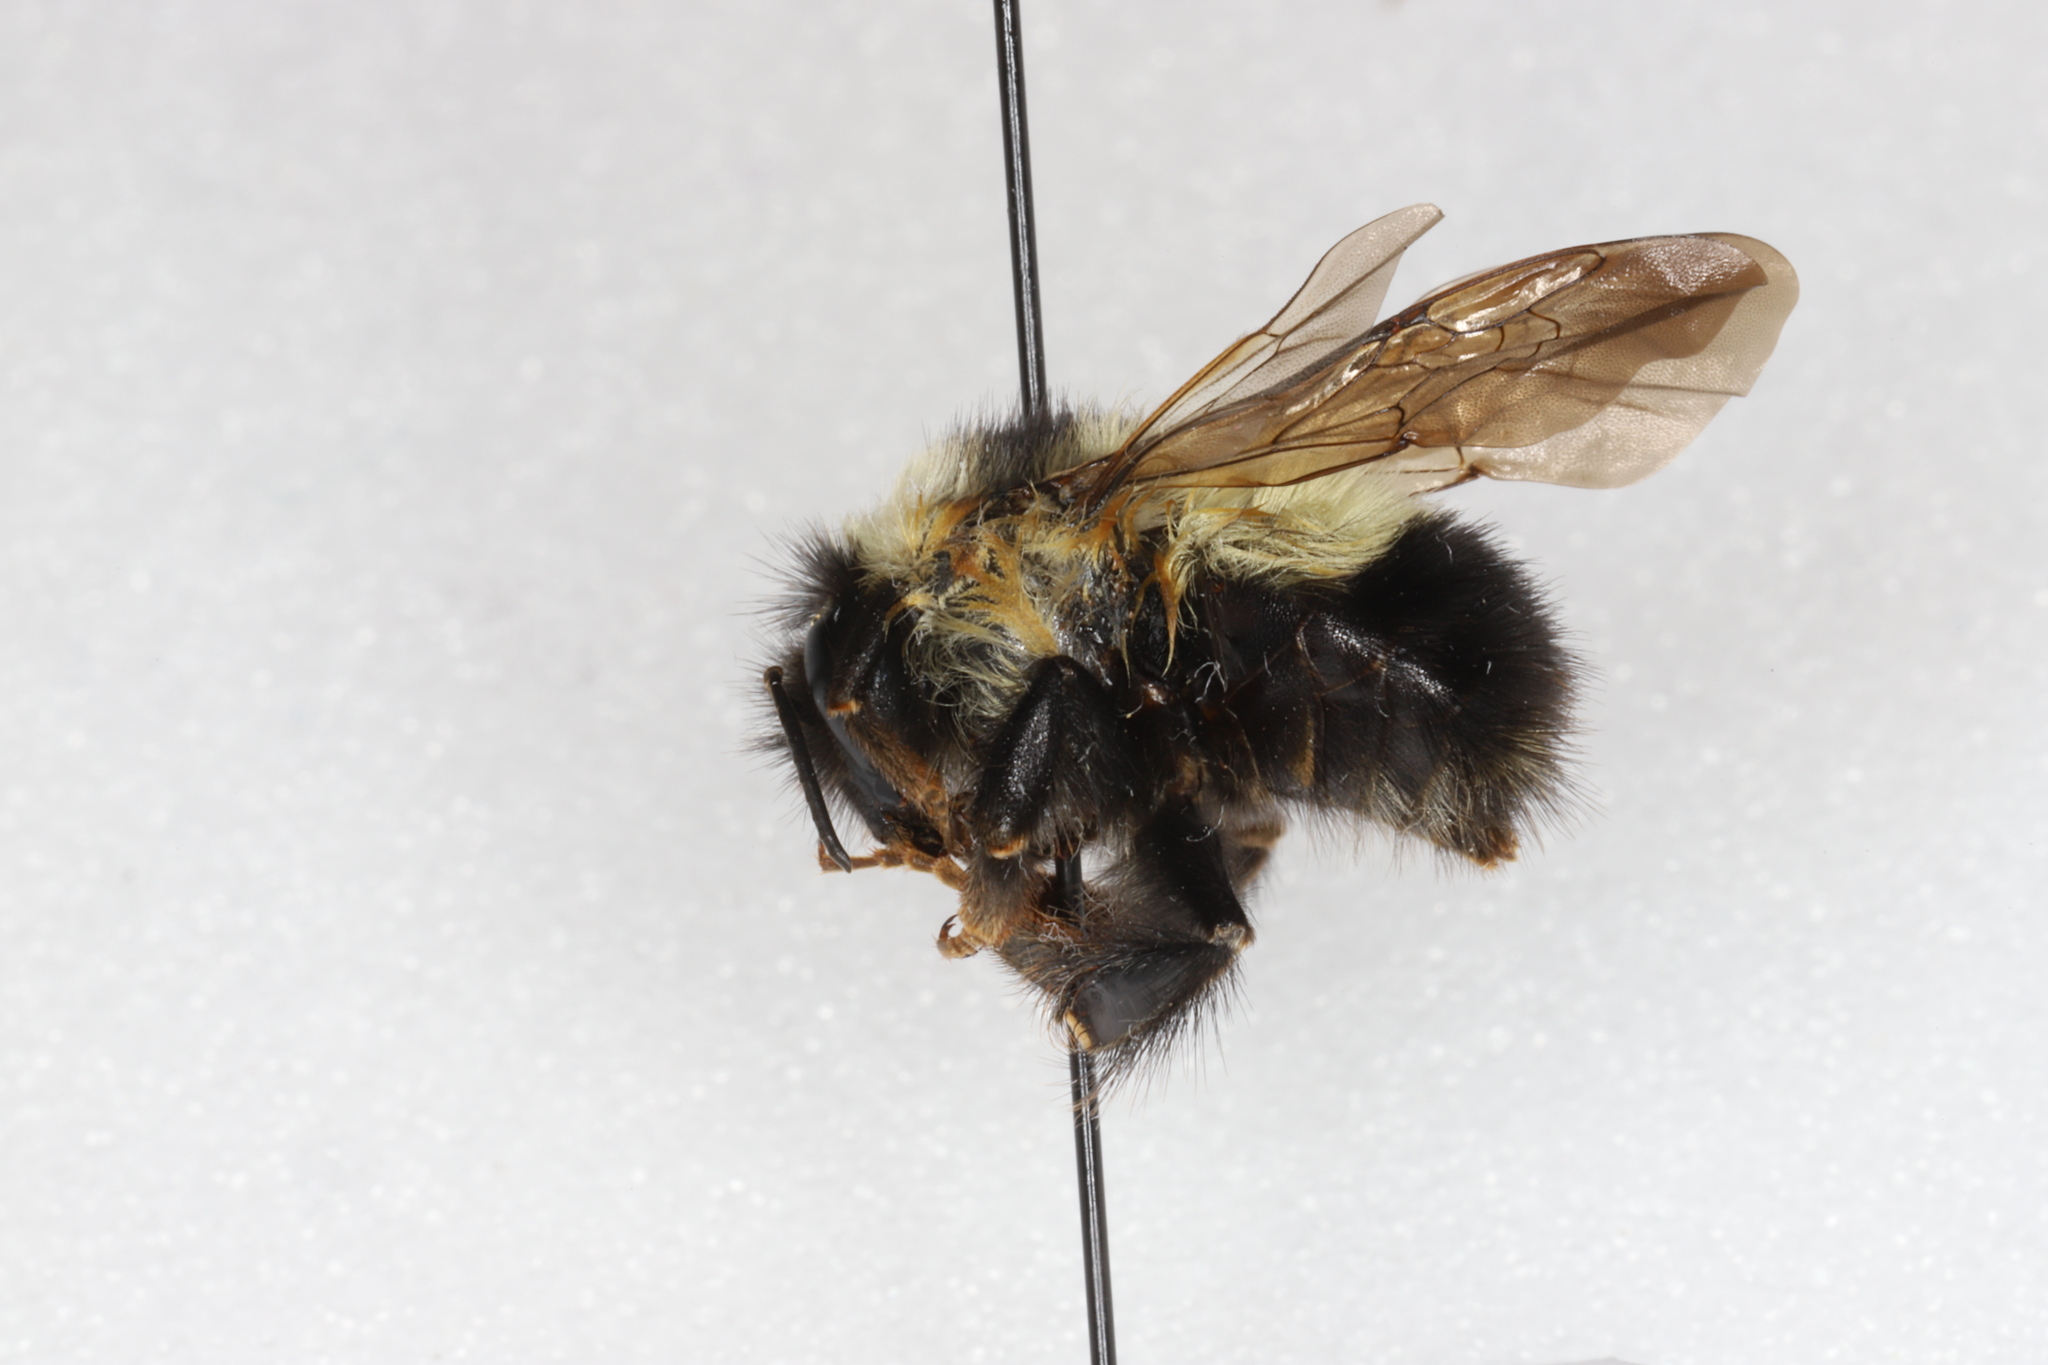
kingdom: Animalia
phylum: Arthropoda
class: Insecta
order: Hymenoptera
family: Apidae
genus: Bombus
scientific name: Bombus sandersoni
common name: Sanderson bumble bee
